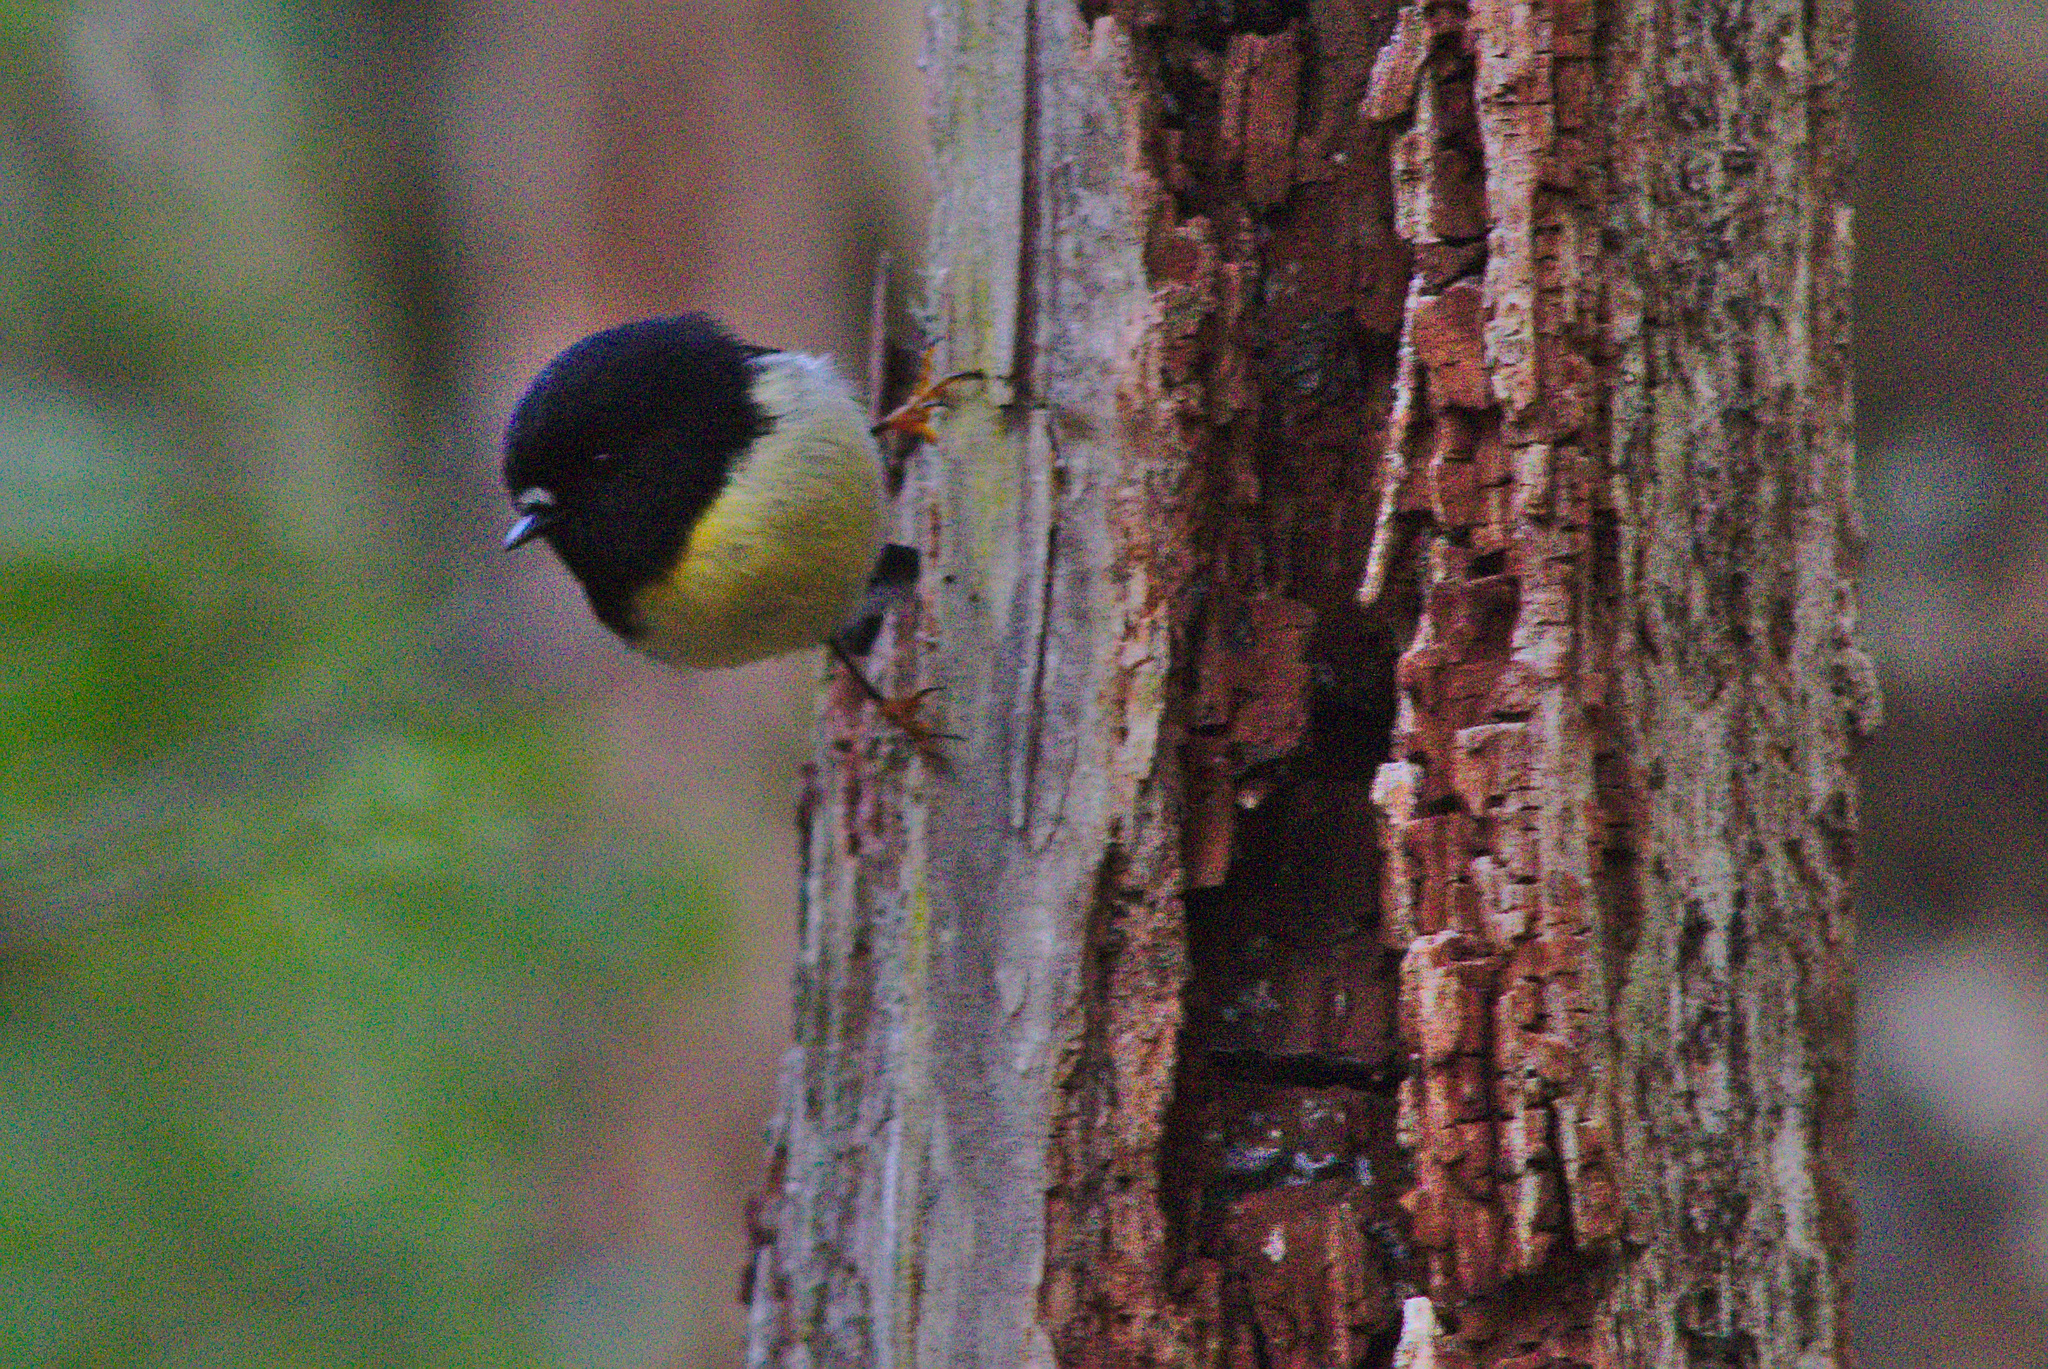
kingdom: Animalia
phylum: Chordata
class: Aves
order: Passeriformes
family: Petroicidae
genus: Petroica
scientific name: Petroica macrocephala
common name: Tomtit
